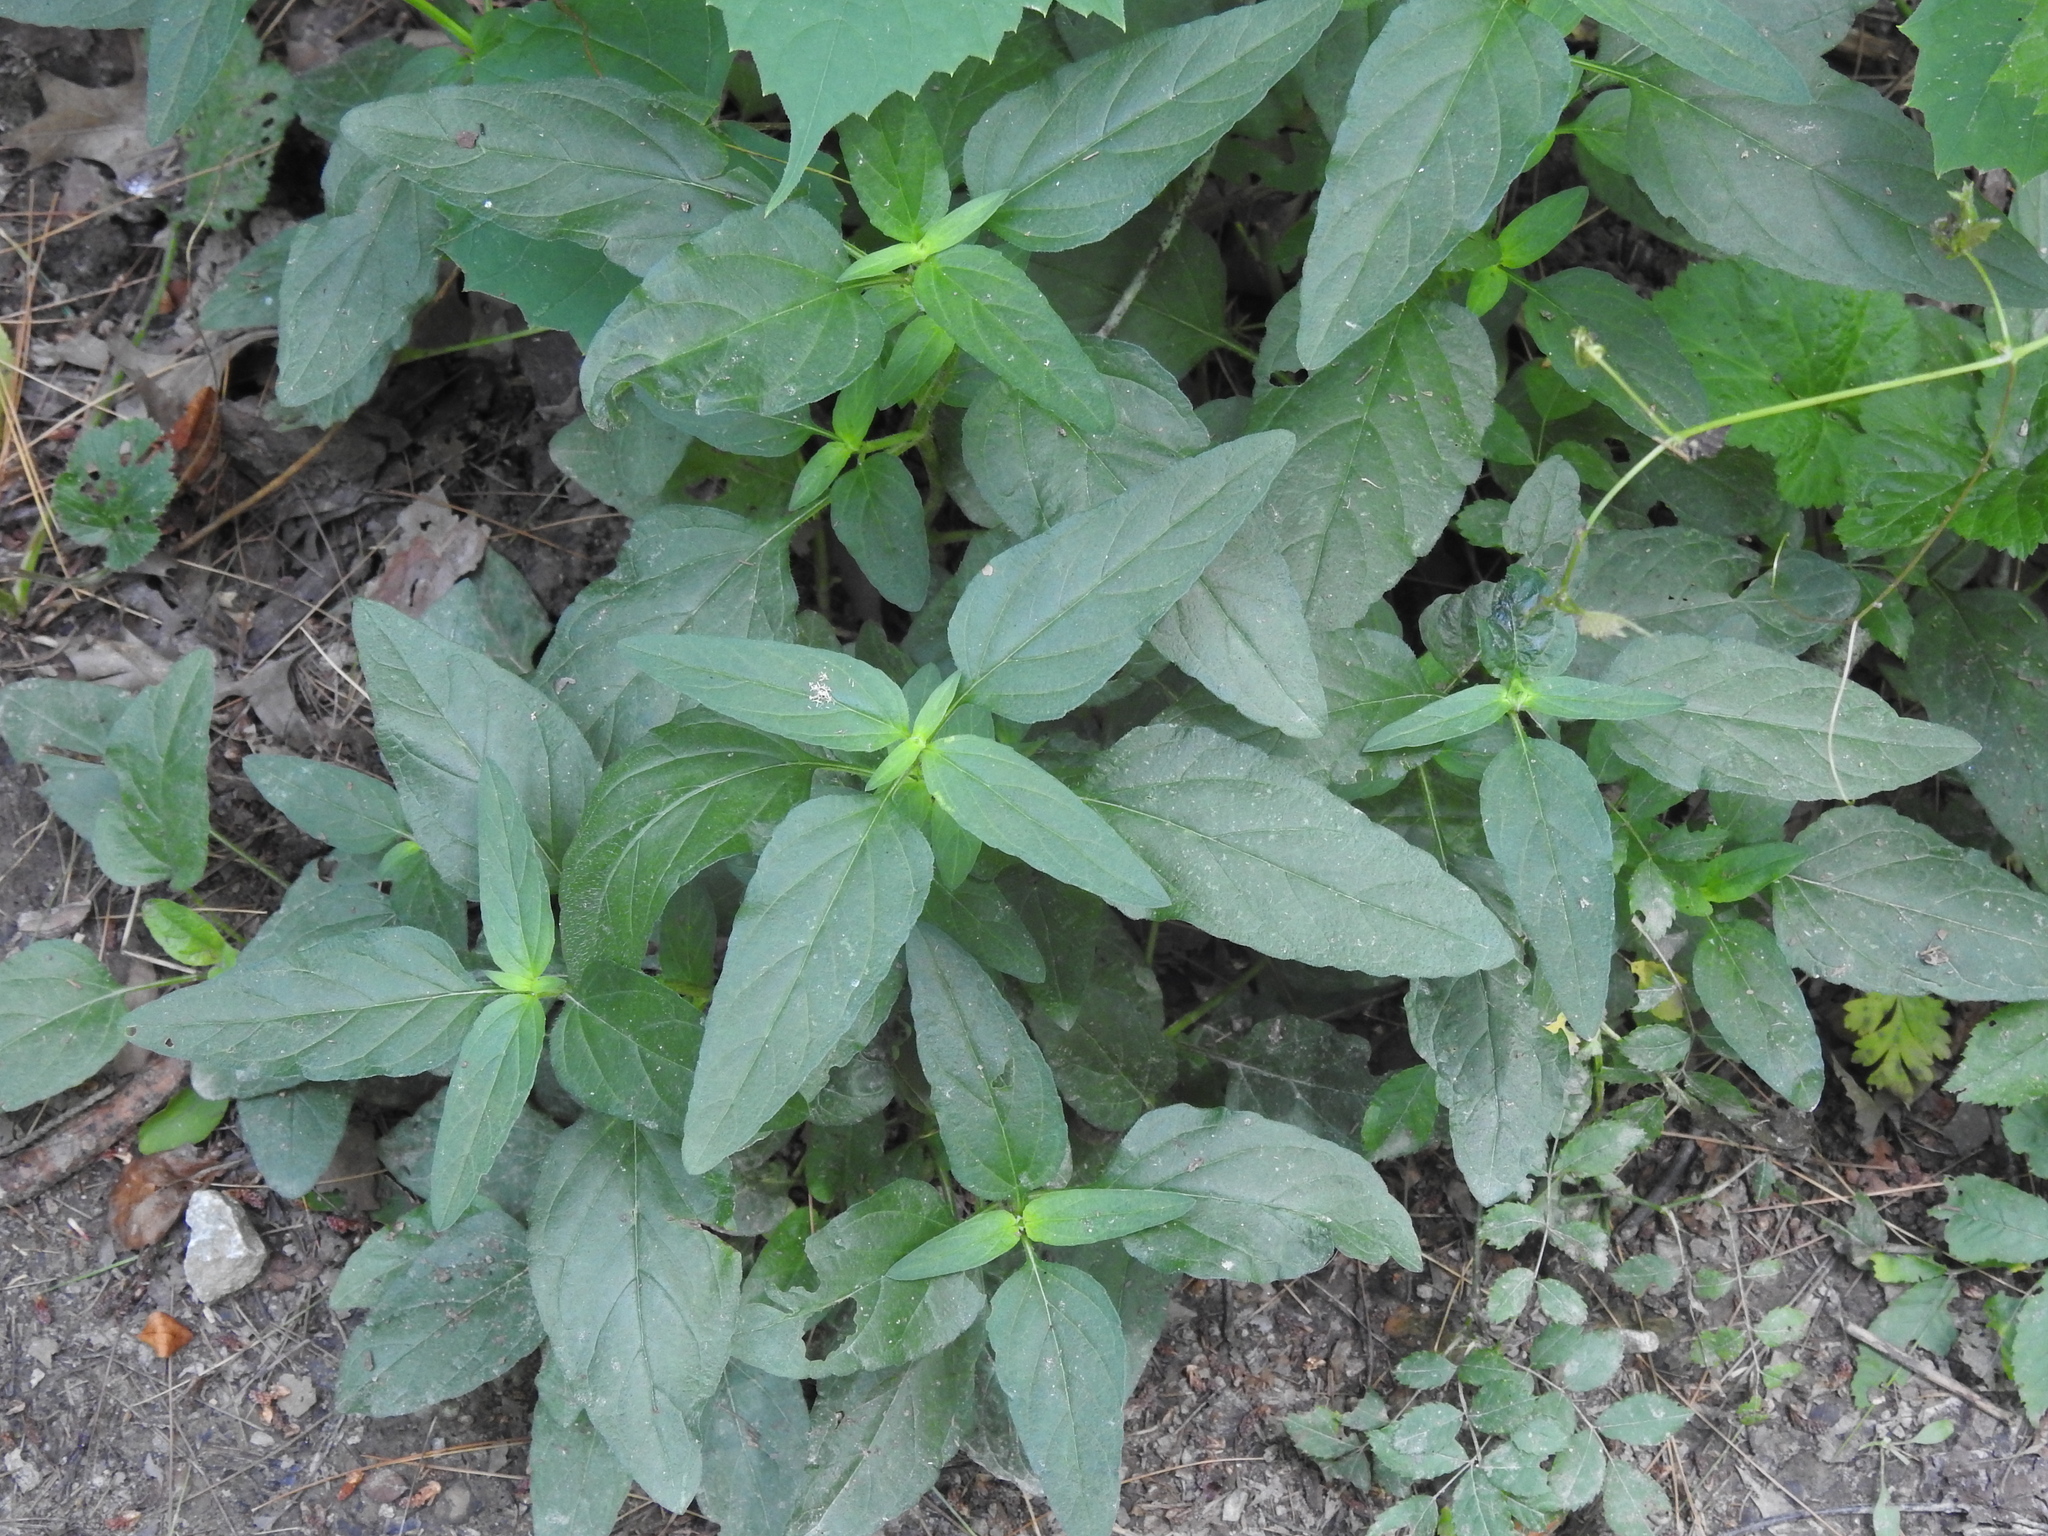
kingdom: Plantae
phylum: Tracheophyta
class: Magnoliopsida
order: Lamiales
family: Lamiaceae
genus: Prunella
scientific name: Prunella vulgaris
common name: Heal-all
